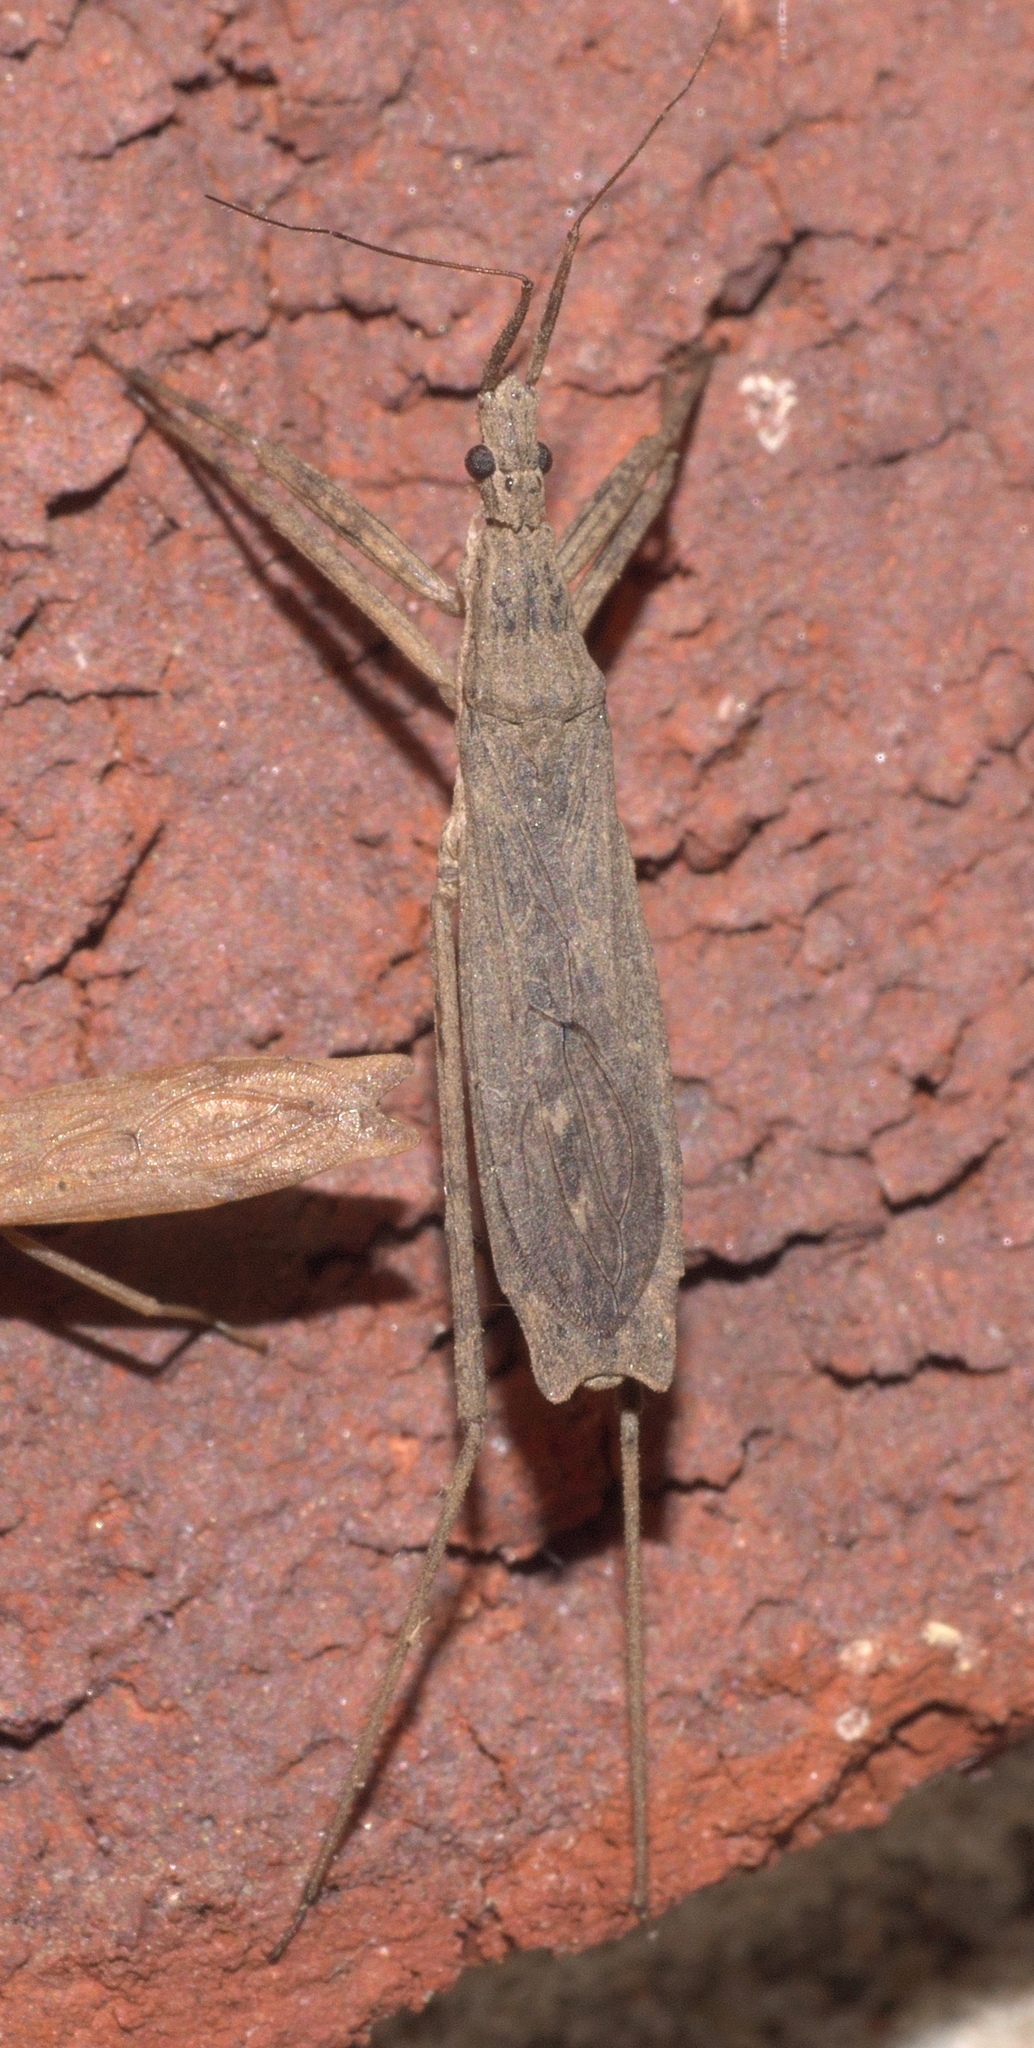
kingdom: Animalia
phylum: Arthropoda
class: Insecta
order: Hemiptera
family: Reduviidae
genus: Pygolampis
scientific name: Pygolampis pectoralis
